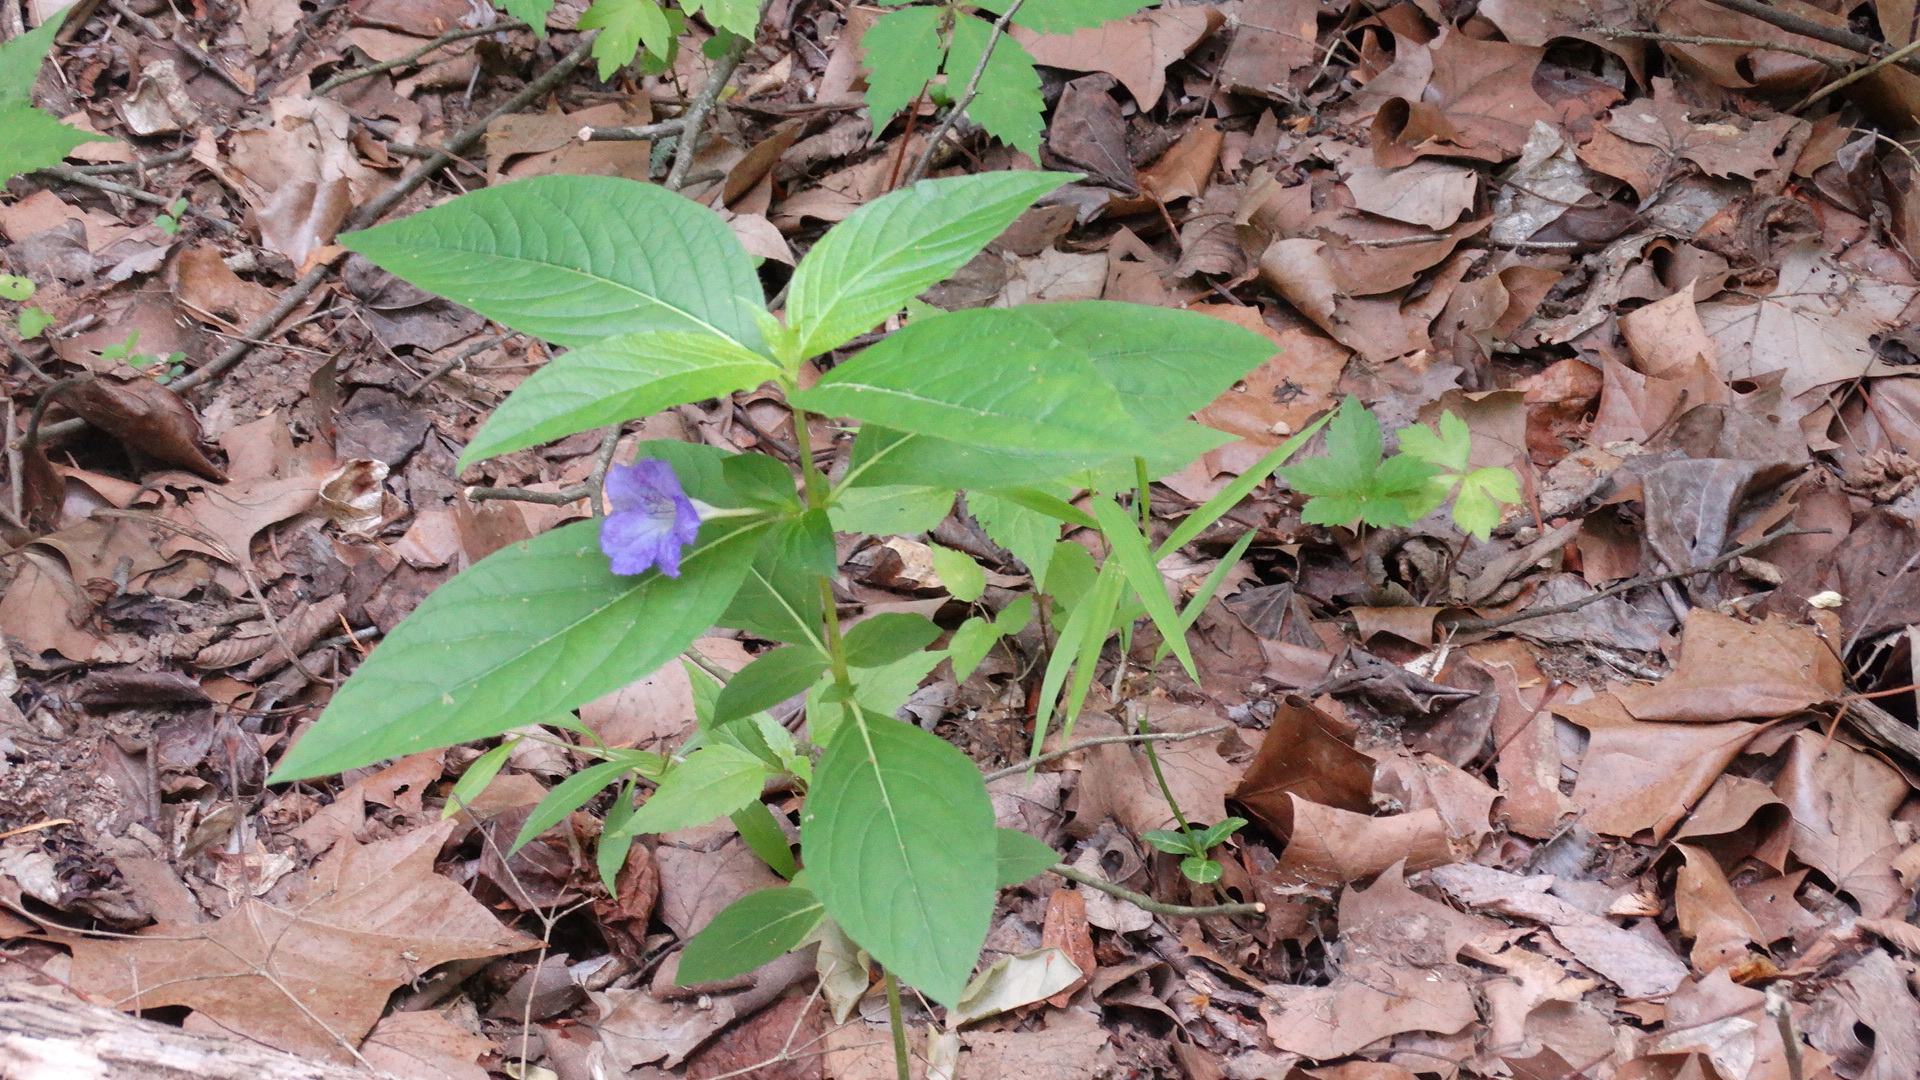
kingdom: Plantae
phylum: Tracheophyta
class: Magnoliopsida
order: Lamiales
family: Acanthaceae
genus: Ruellia
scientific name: Ruellia strepens
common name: Limestone wild petunia
